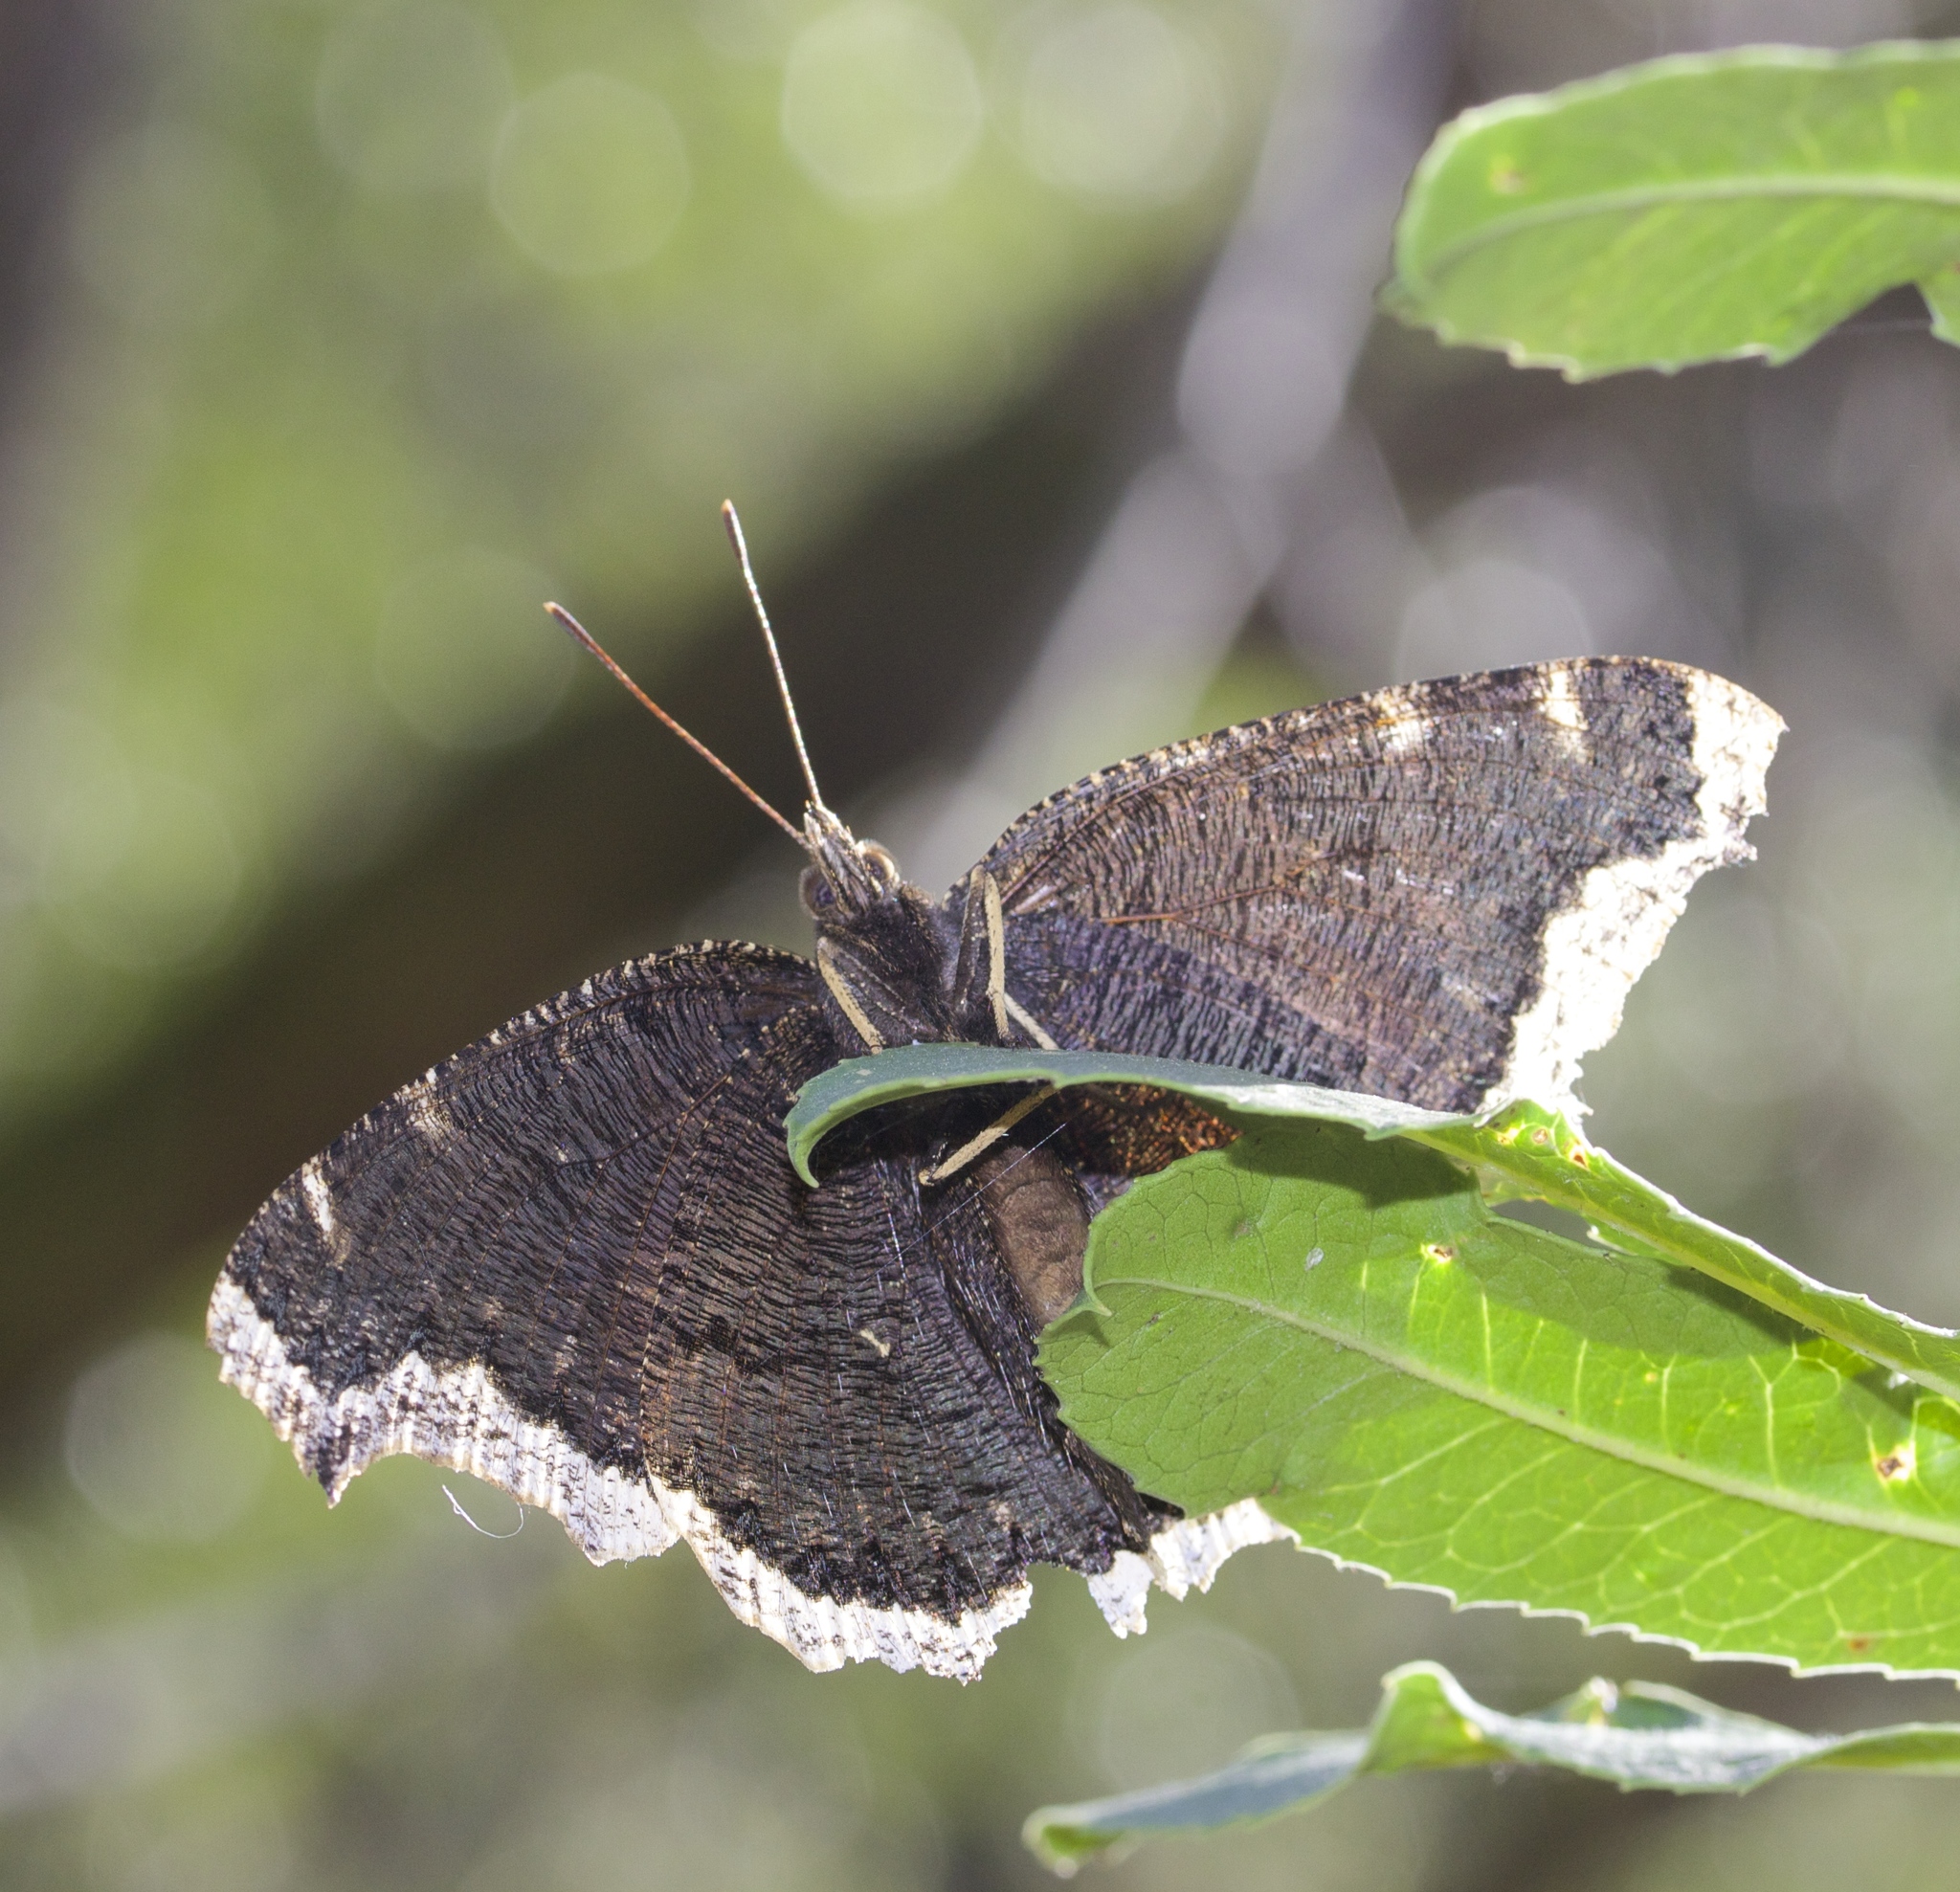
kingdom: Animalia
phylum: Arthropoda
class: Insecta
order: Lepidoptera
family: Nymphalidae
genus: Nymphalis
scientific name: Nymphalis antiopa
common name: Camberwell beauty
